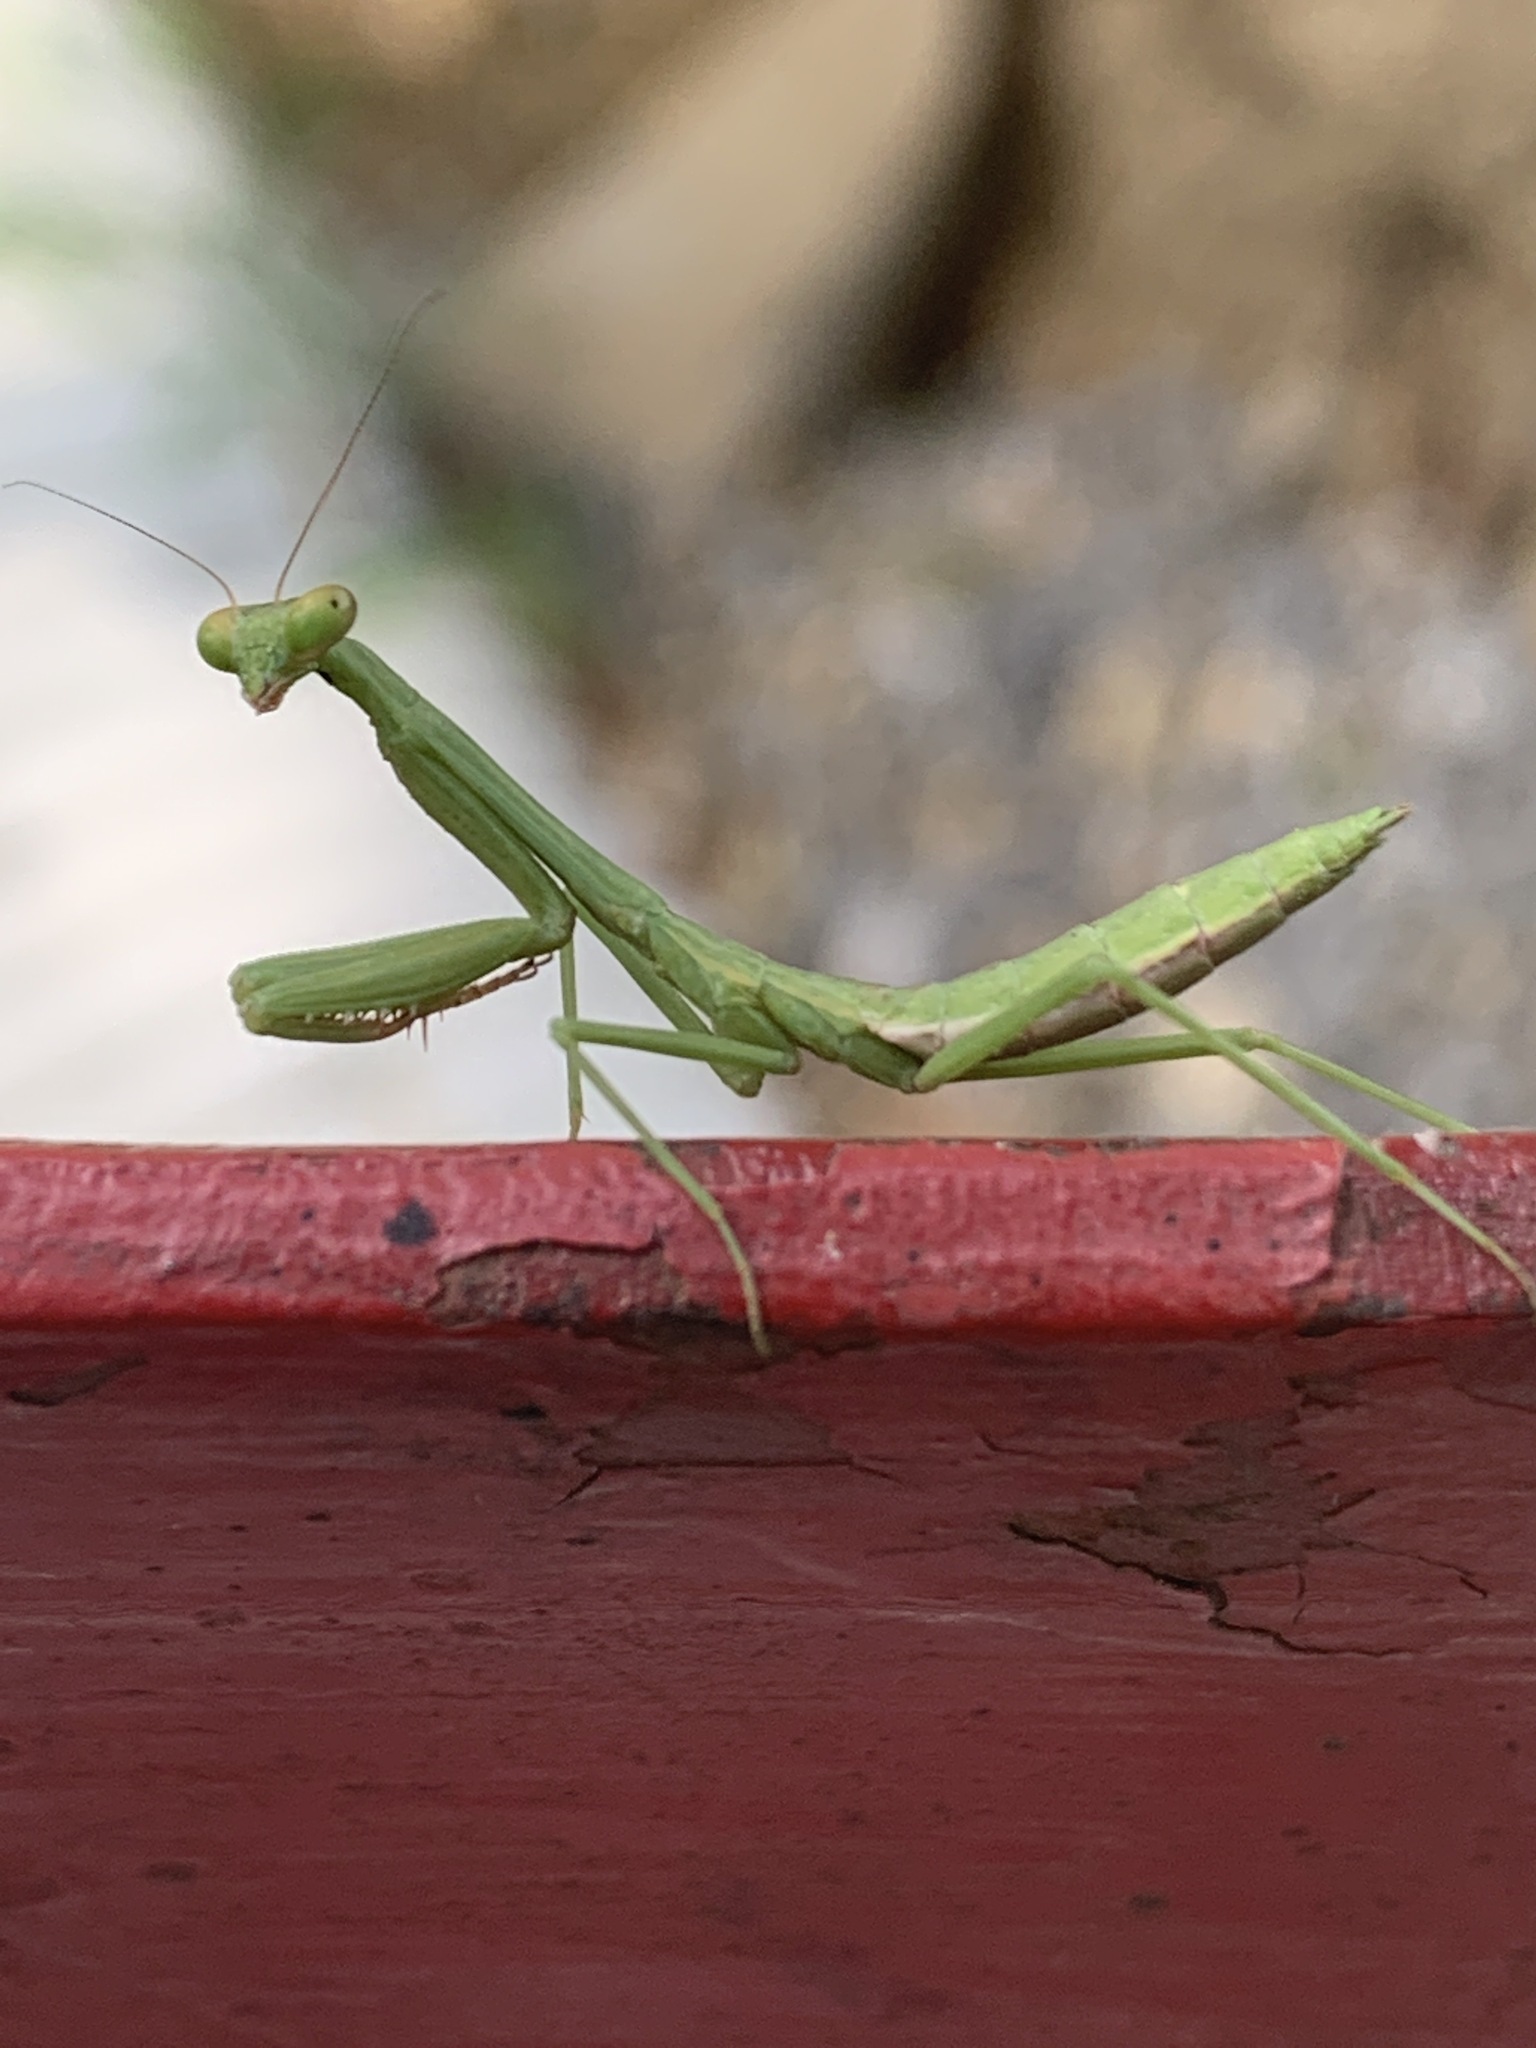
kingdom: Animalia
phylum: Arthropoda
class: Insecta
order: Mantodea
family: Mantidae
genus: Stagmomantis
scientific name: Stagmomantis carolina
